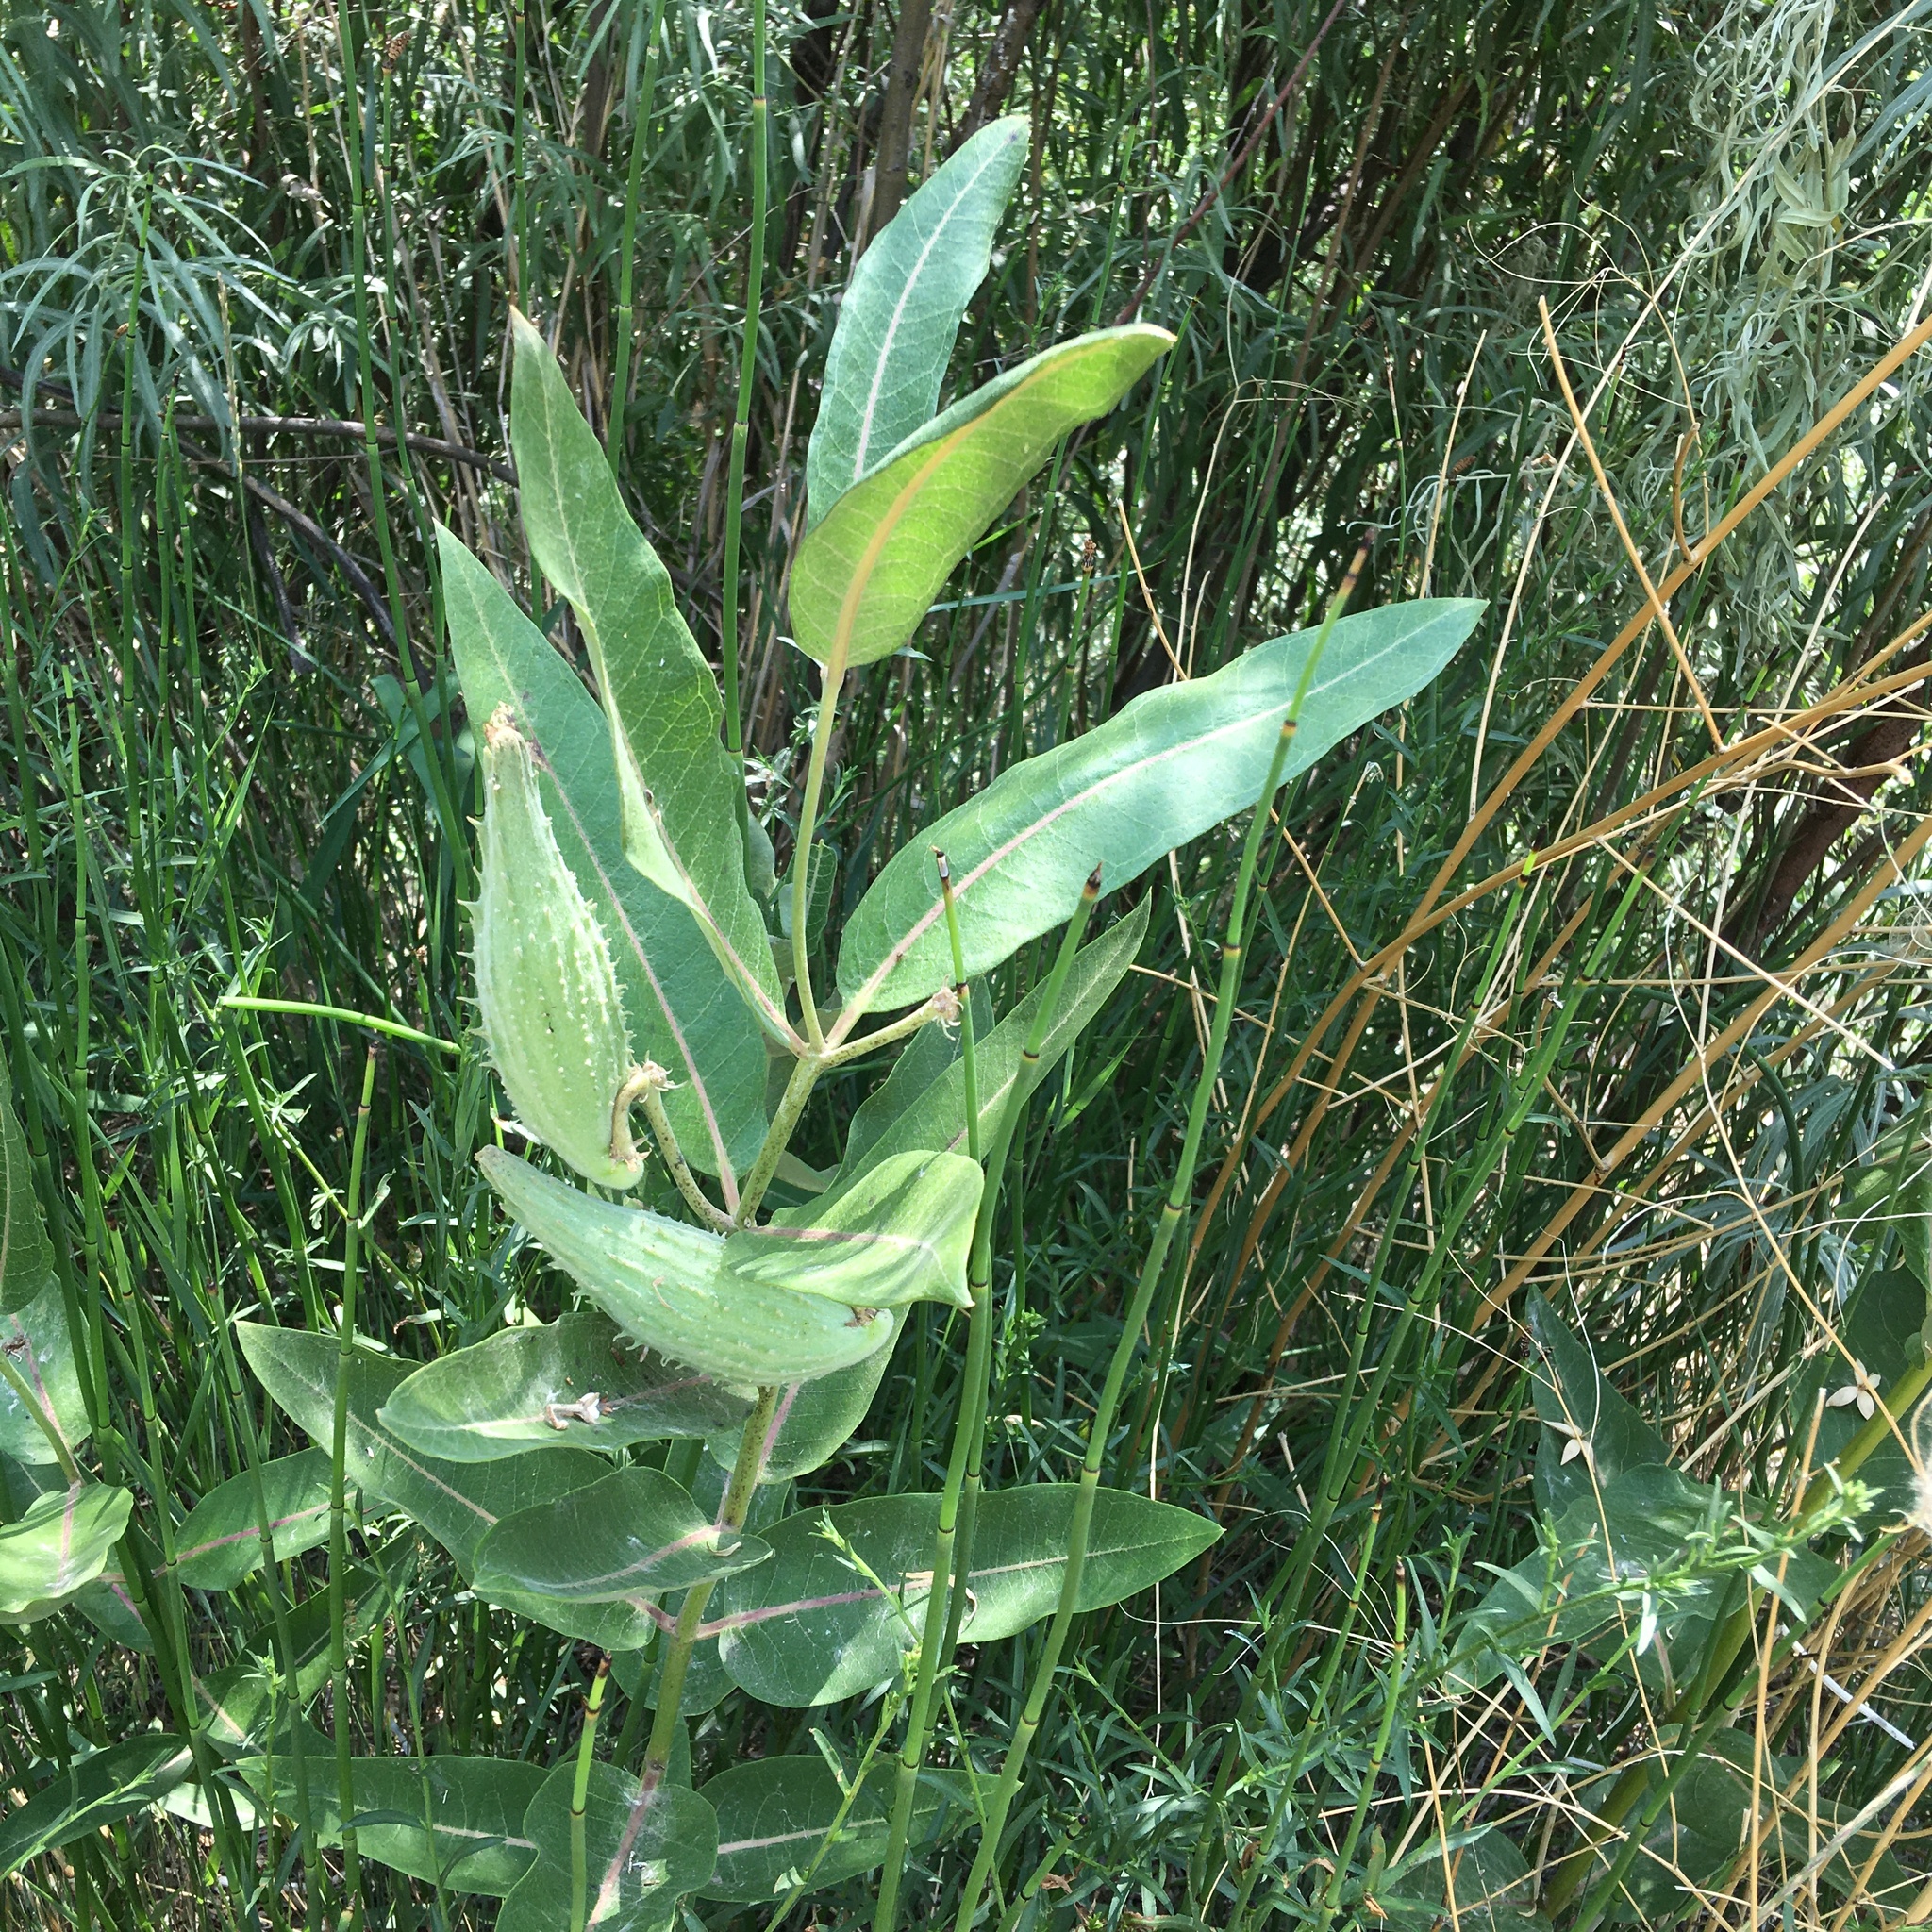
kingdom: Plantae
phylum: Tracheophyta
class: Magnoliopsida
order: Gentianales
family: Apocynaceae
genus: Asclepias
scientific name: Asclepias speciosa
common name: Showy milkweed
